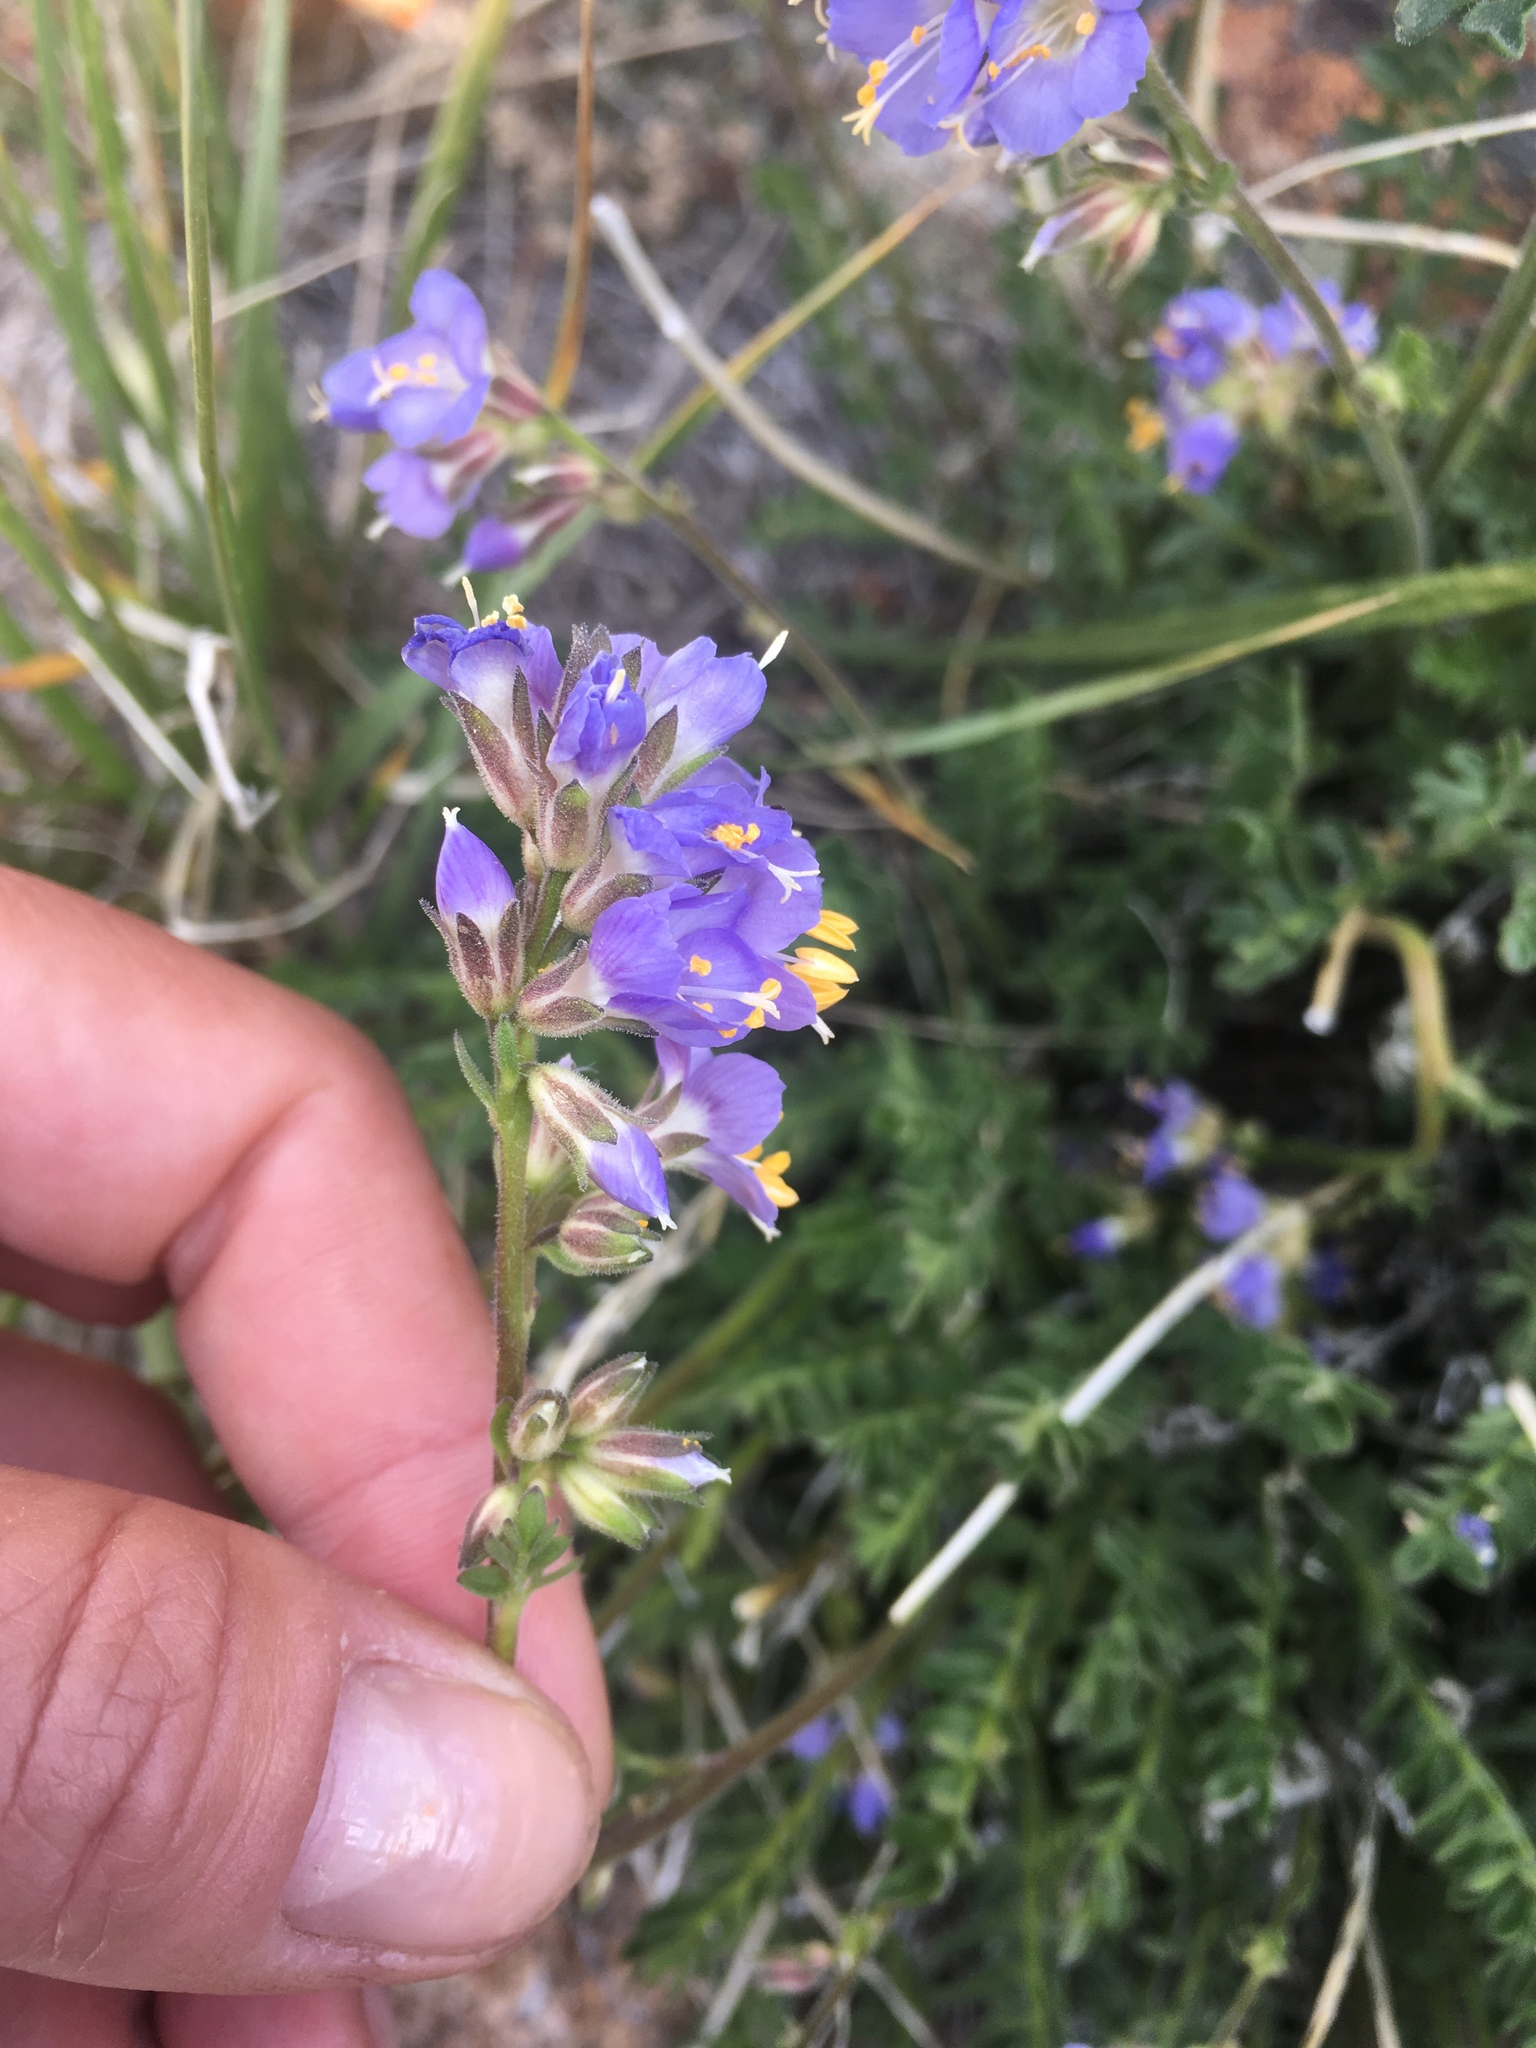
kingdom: Plantae
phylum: Tracheophyta
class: Magnoliopsida
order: Ericales
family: Polemoniaceae
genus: Polemonium
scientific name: Polemonium nevadense
